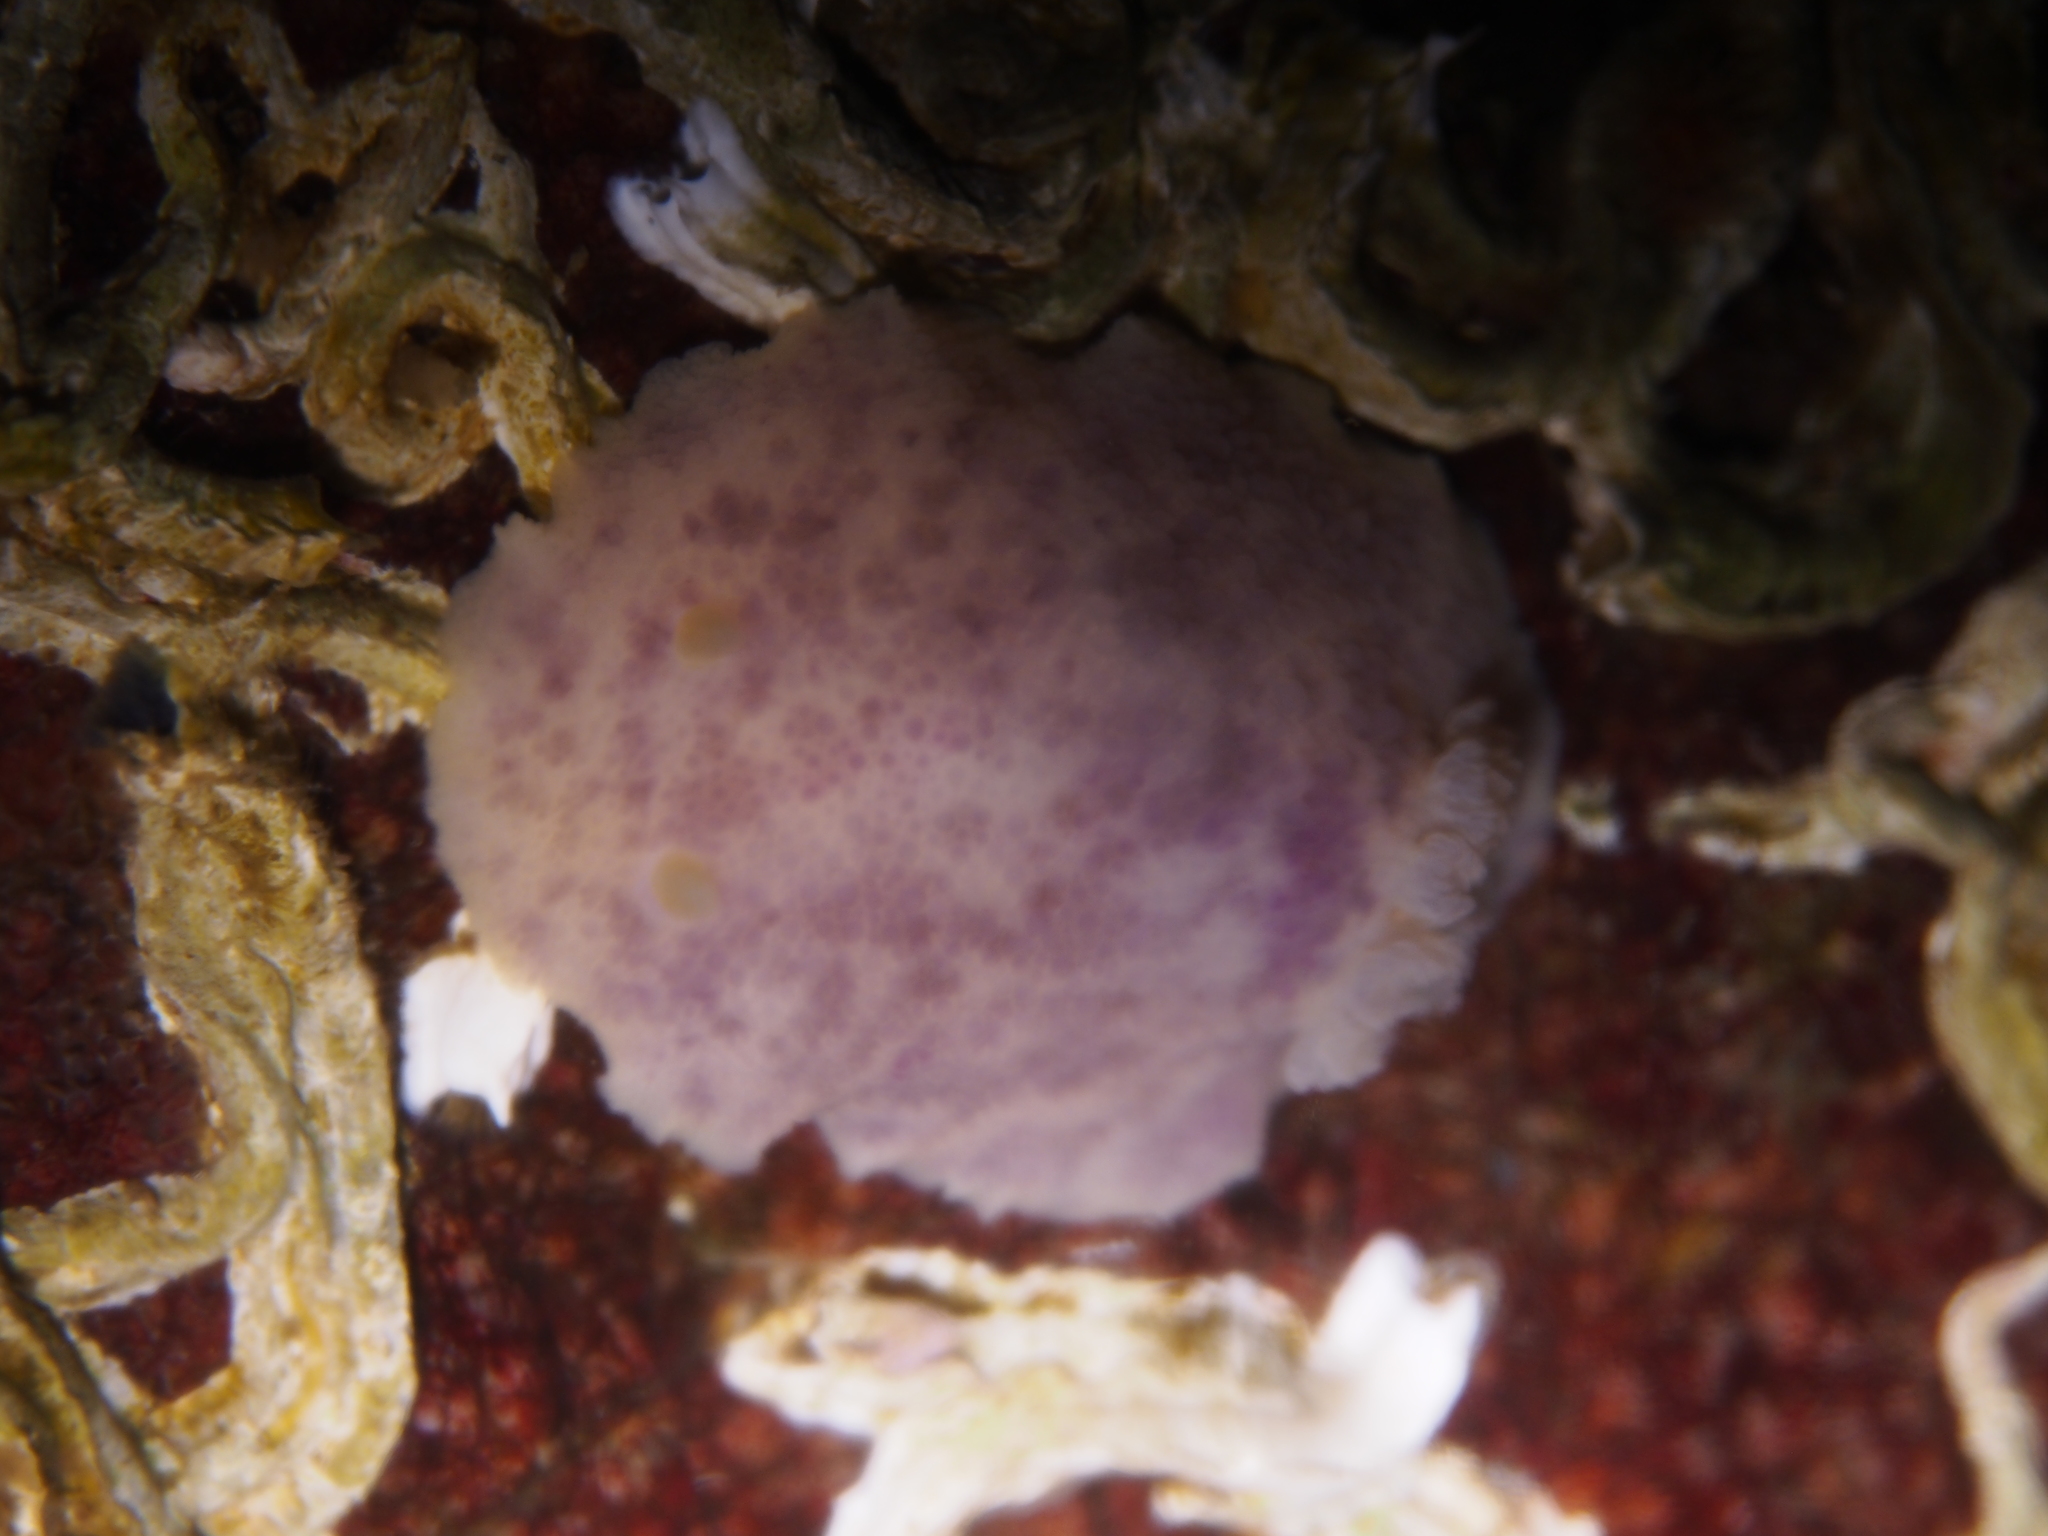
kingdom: Animalia
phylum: Mollusca
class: Gastropoda
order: Nudibranchia
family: Dorididae
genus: Doris
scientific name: Doris pseudoargus
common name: Sea lemon
